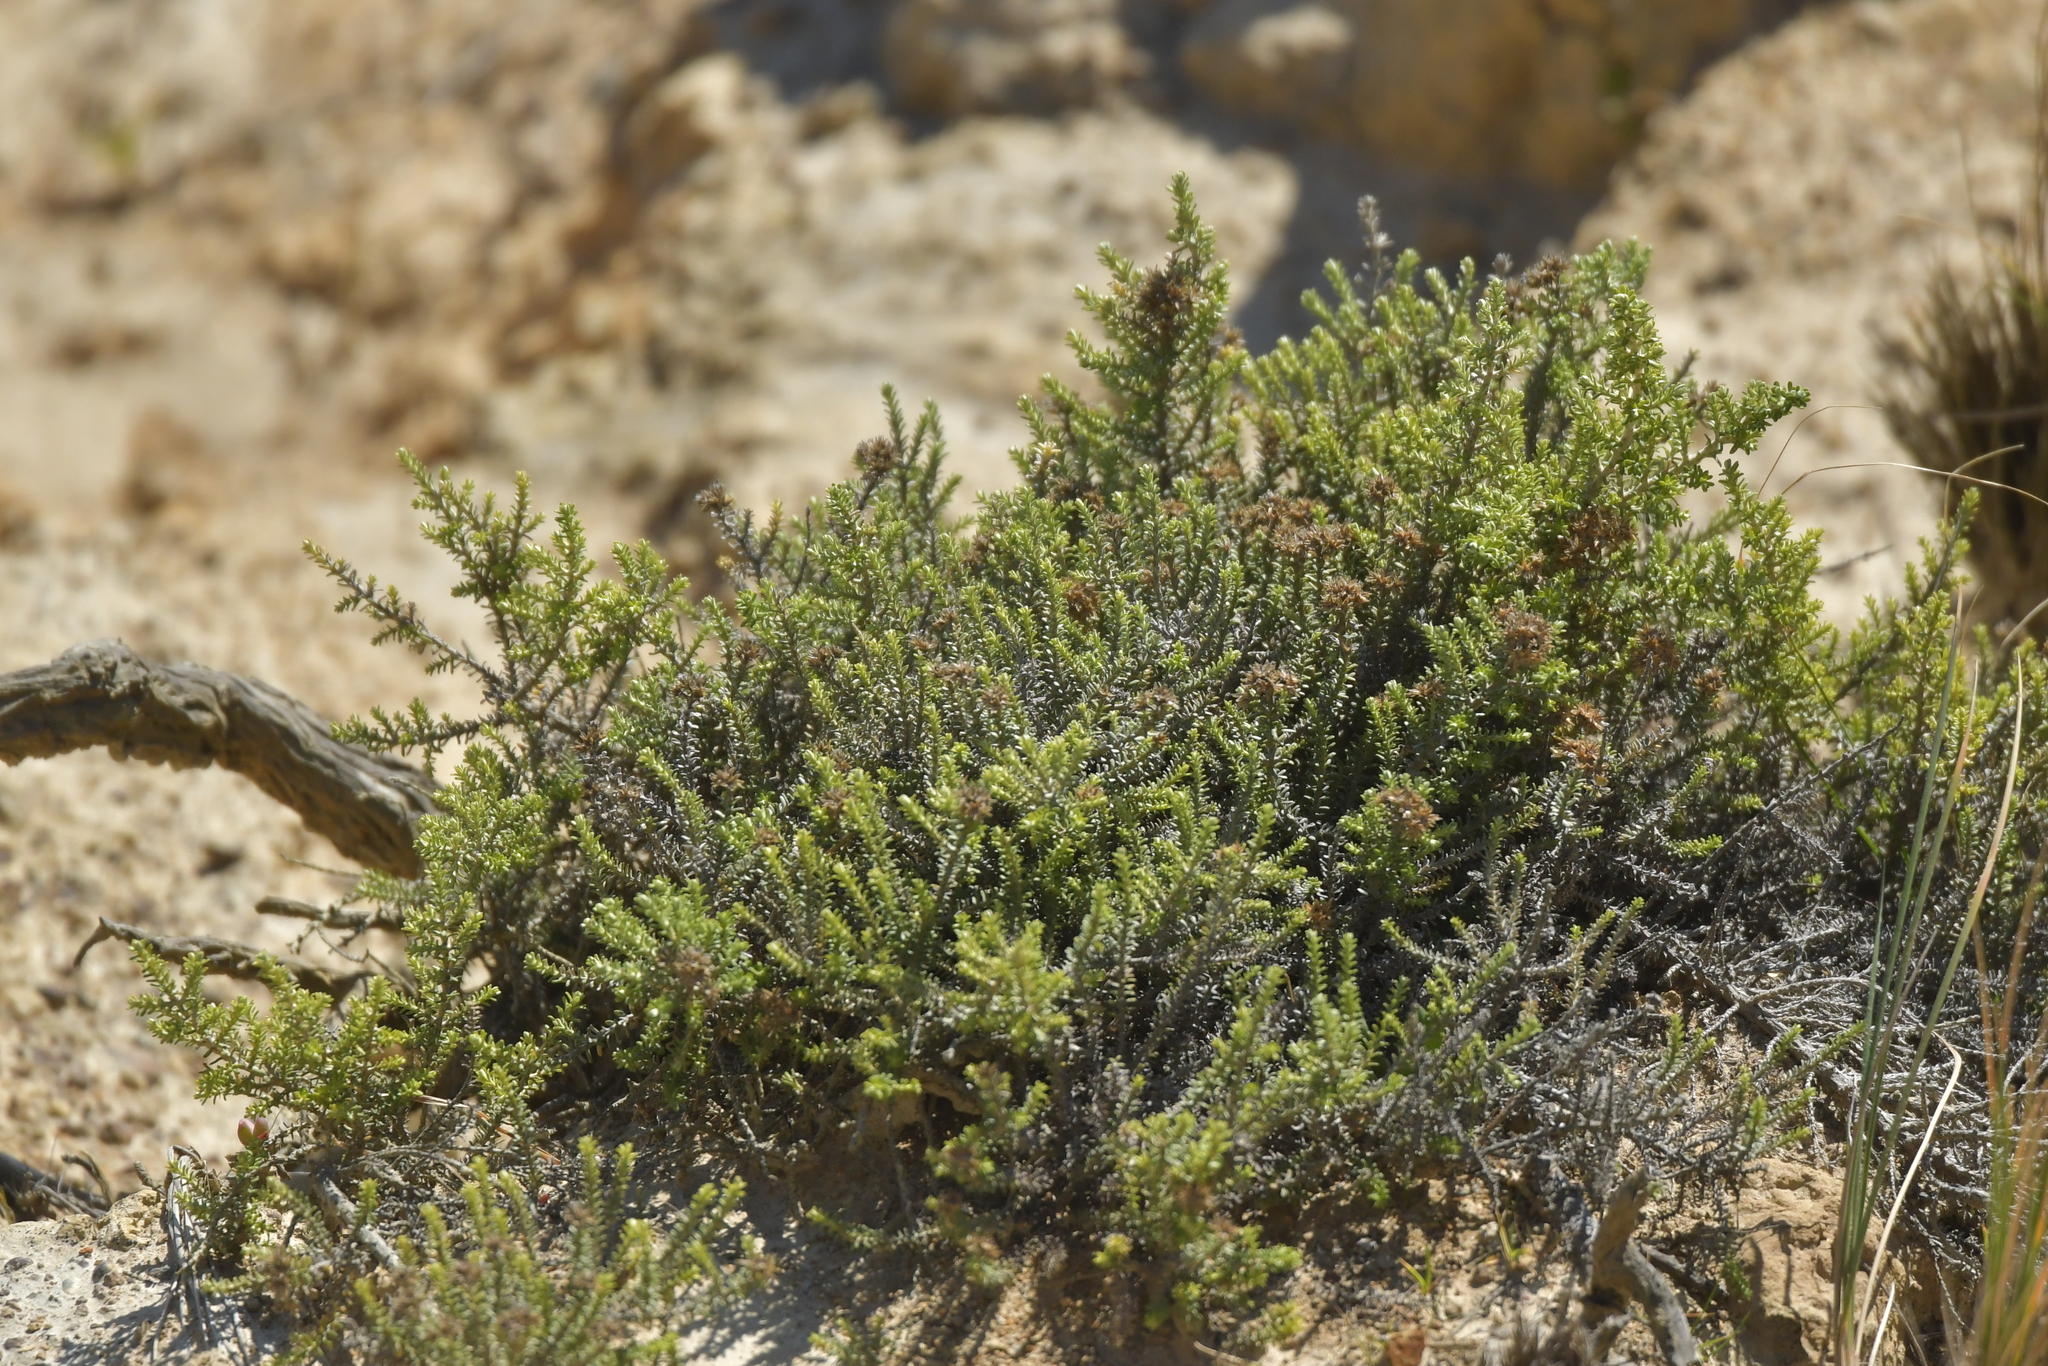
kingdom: Plantae
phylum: Tracheophyta
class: Magnoliopsida
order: Asterales
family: Asteraceae
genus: Ozothamnus
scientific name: Ozothamnus leptophyllus
